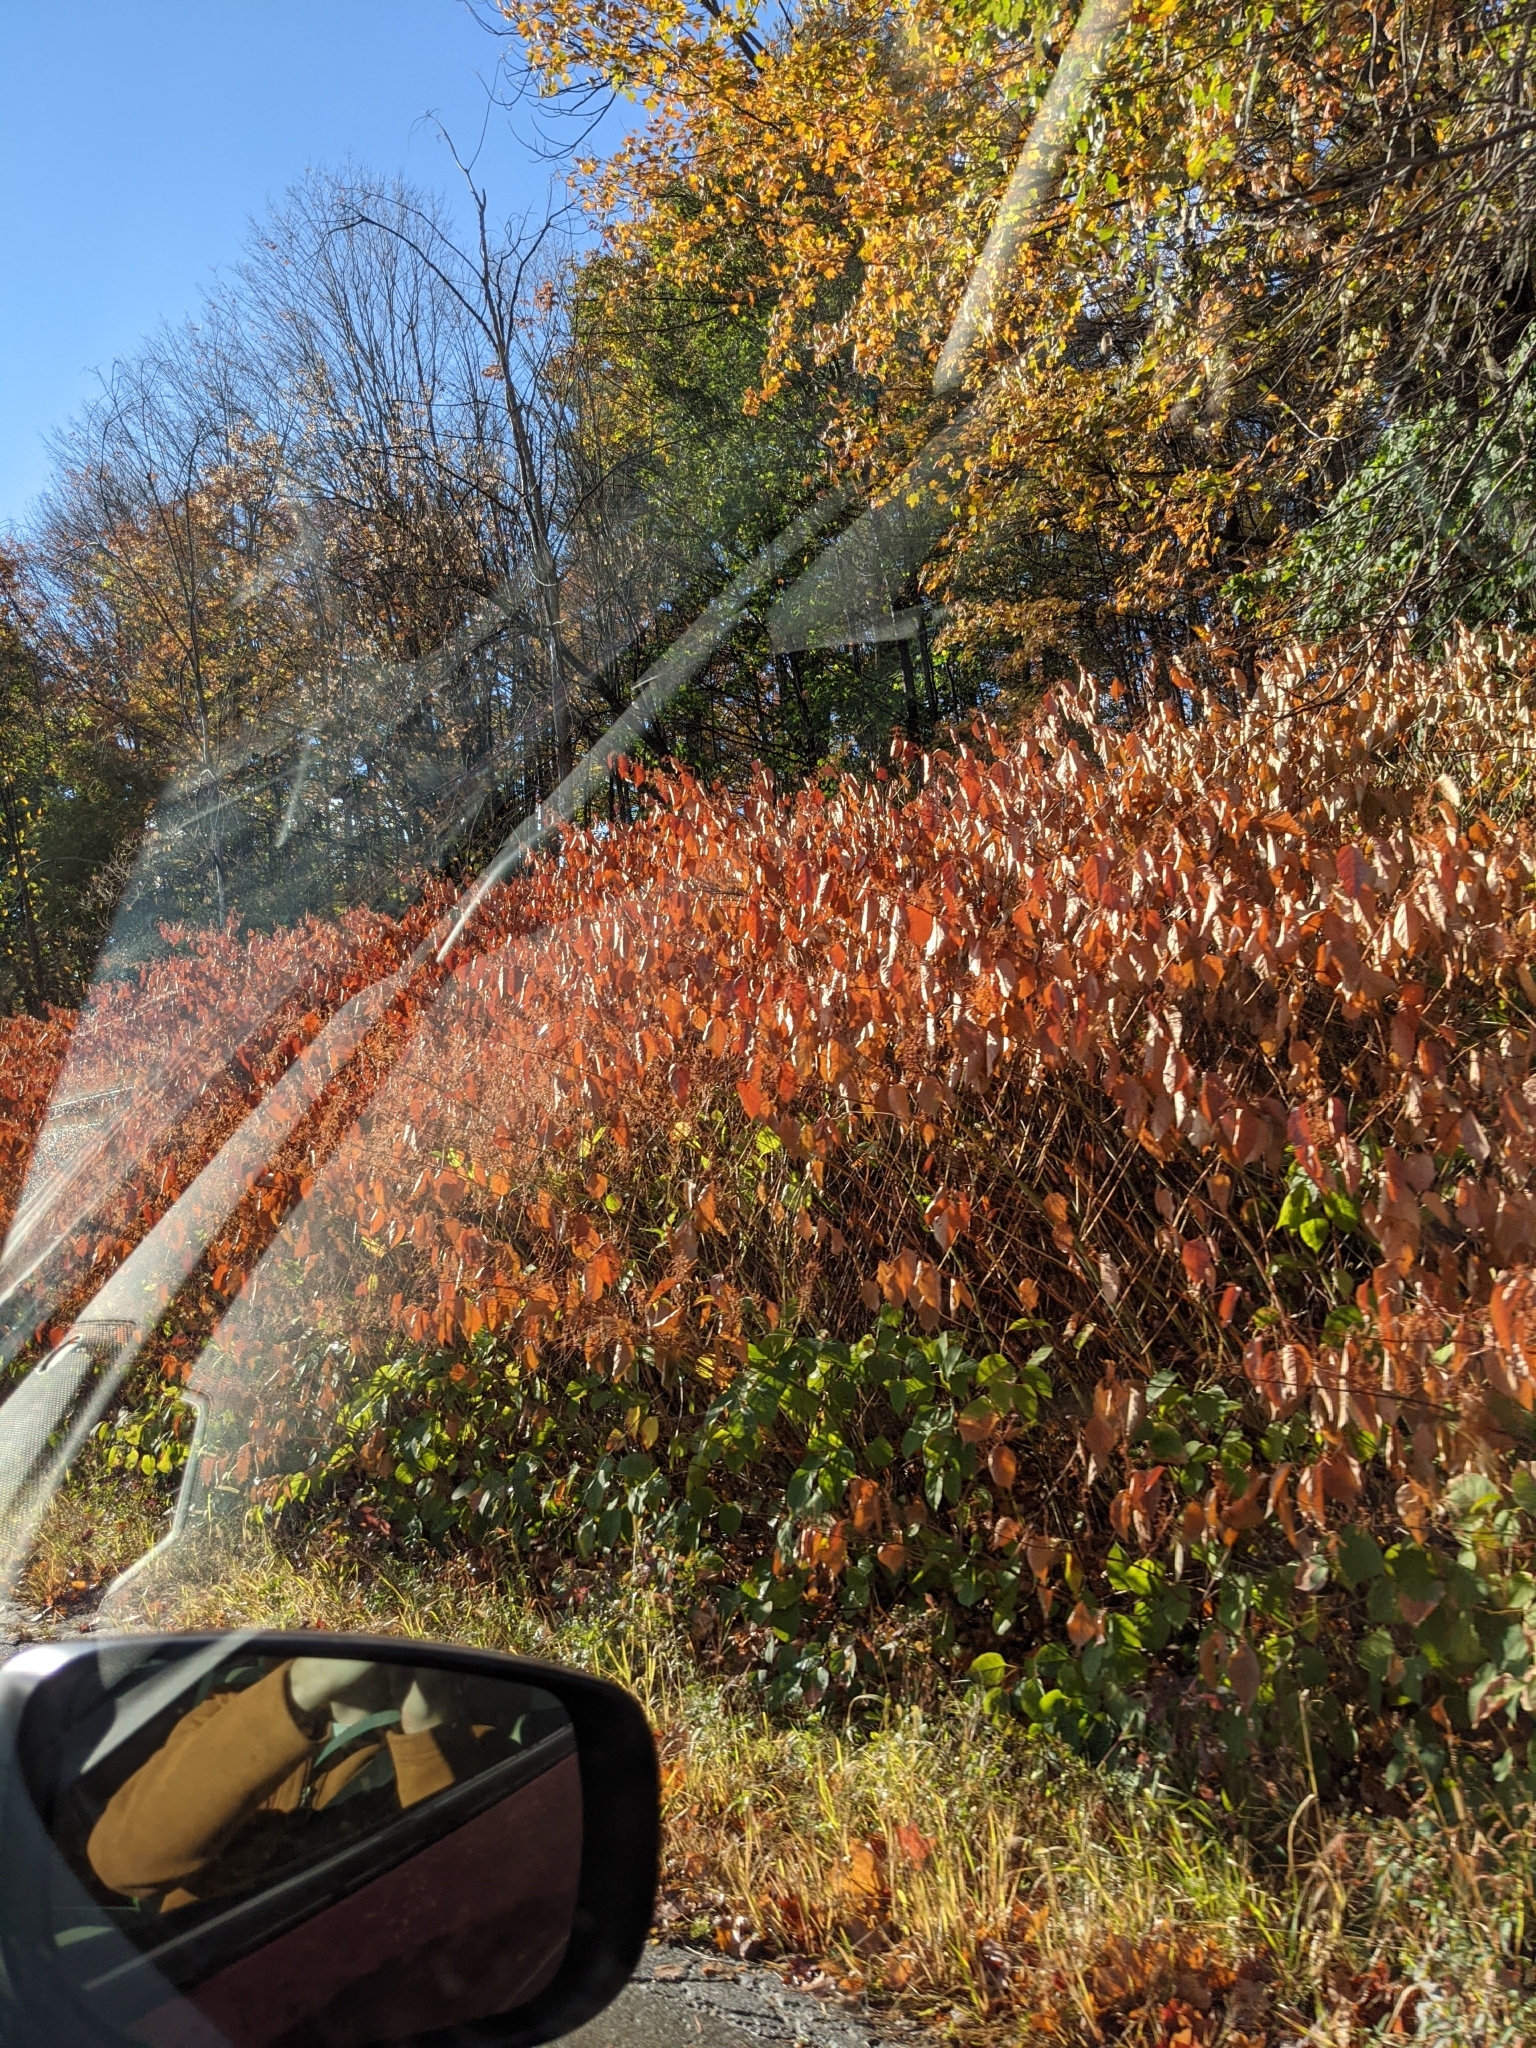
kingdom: Plantae
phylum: Tracheophyta
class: Magnoliopsida
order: Caryophyllales
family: Polygonaceae
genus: Reynoutria
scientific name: Reynoutria japonica
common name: Japanese knotweed
